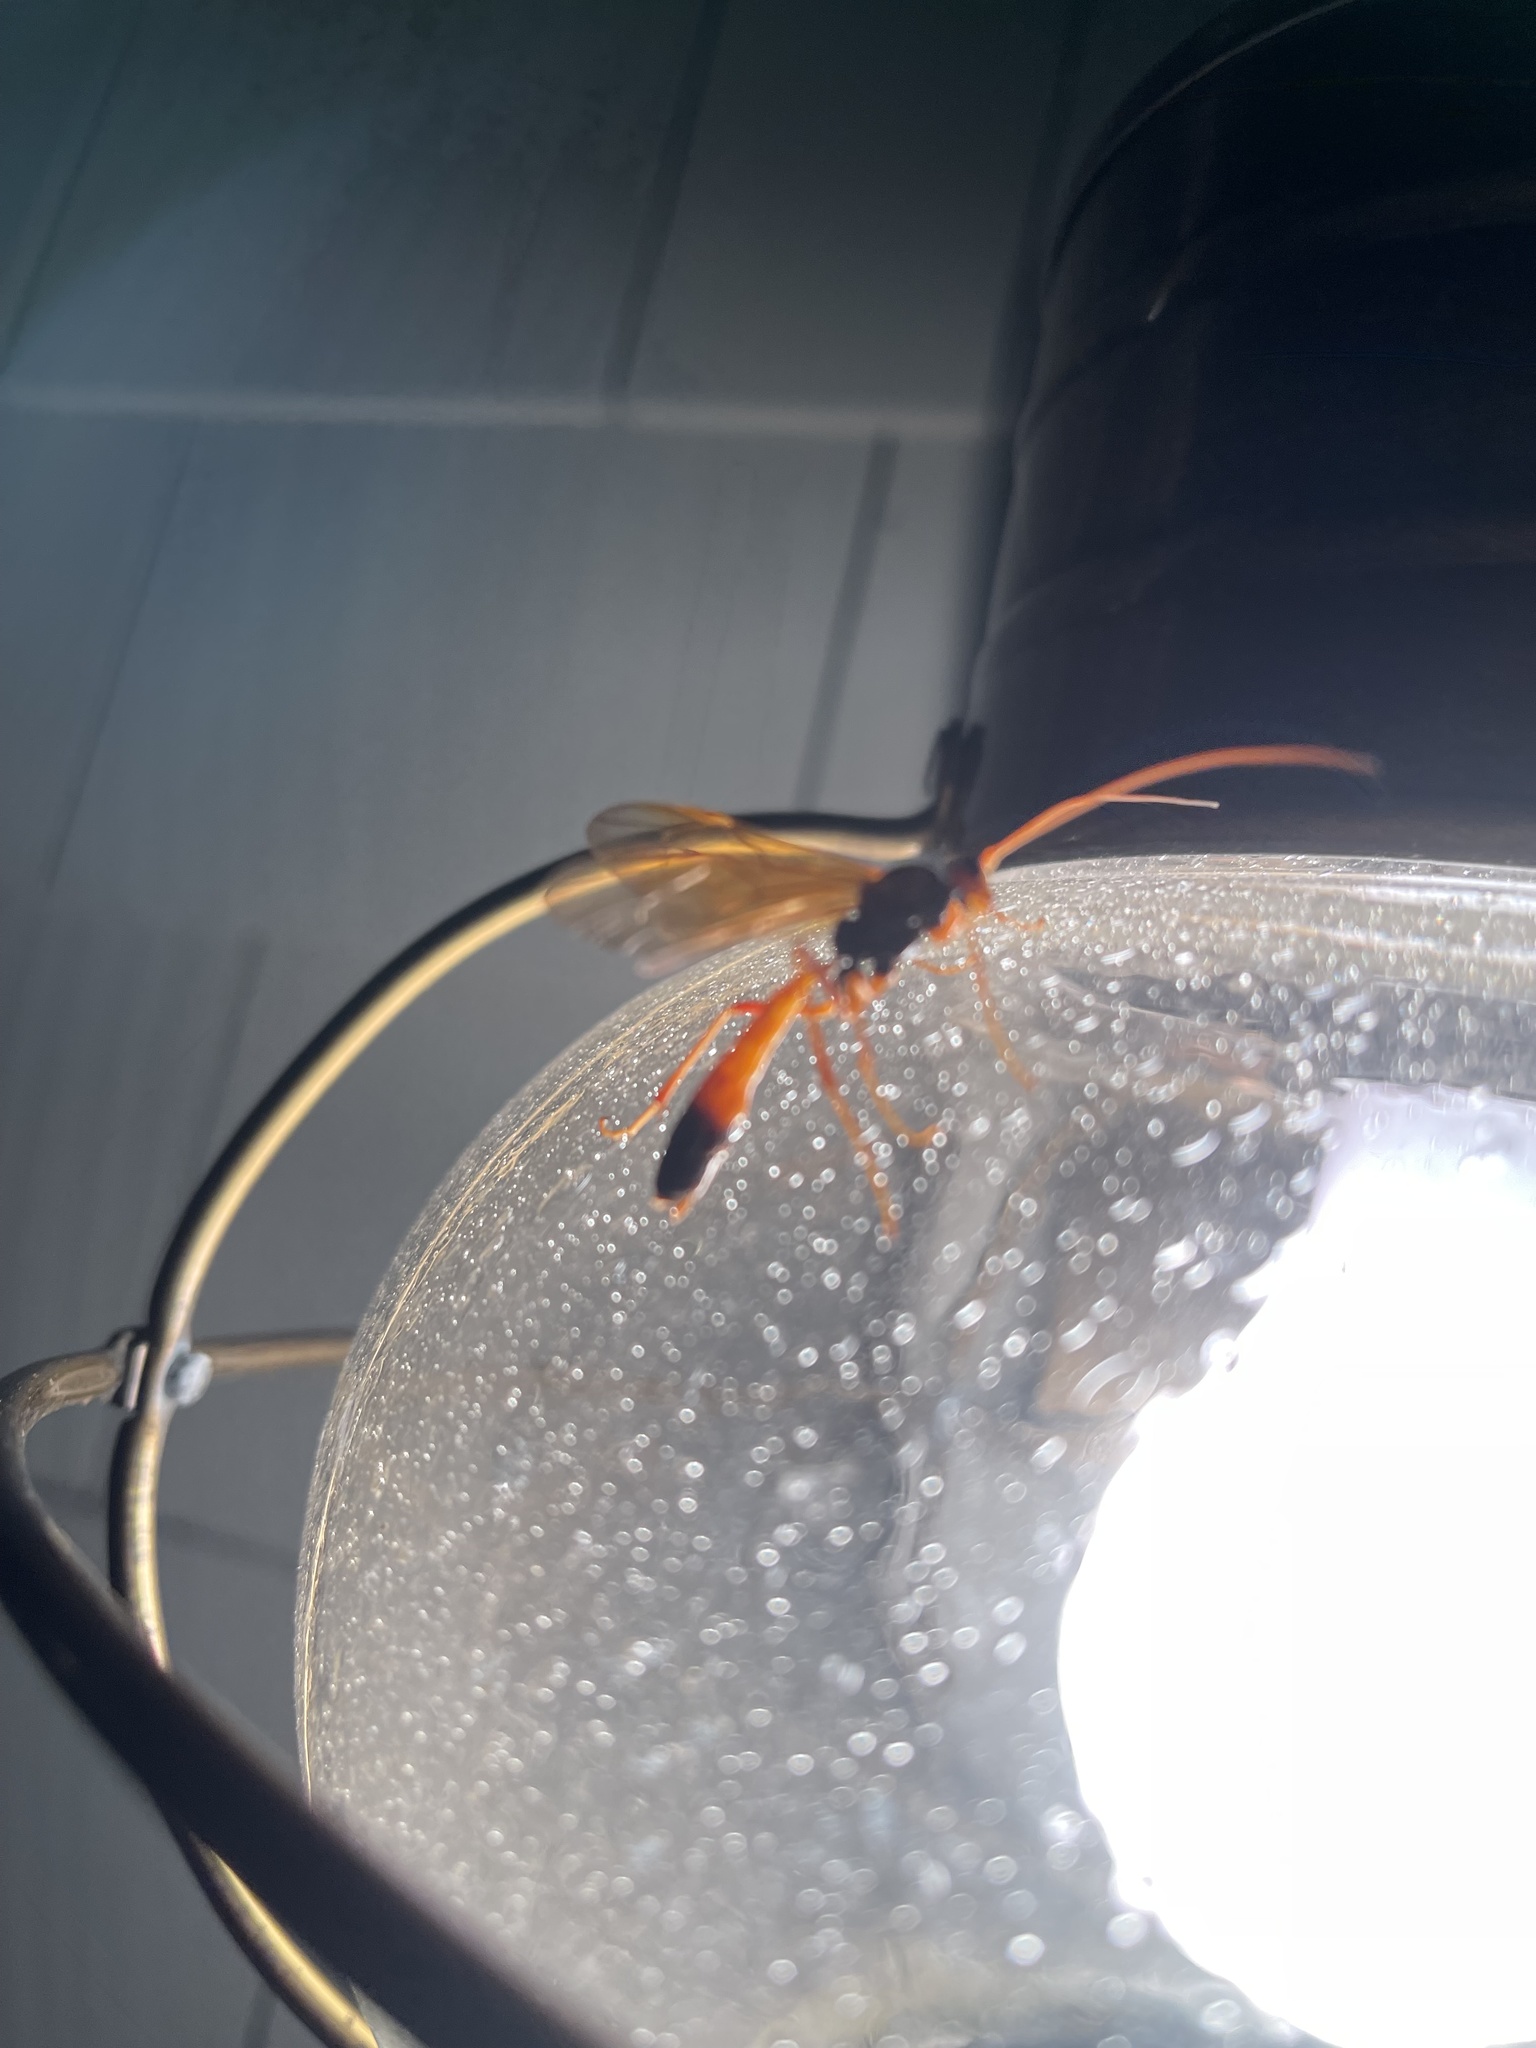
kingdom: Animalia
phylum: Arthropoda
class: Insecta
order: Hymenoptera
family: Ichneumonidae
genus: Opheltes
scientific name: Opheltes glaucopterus
